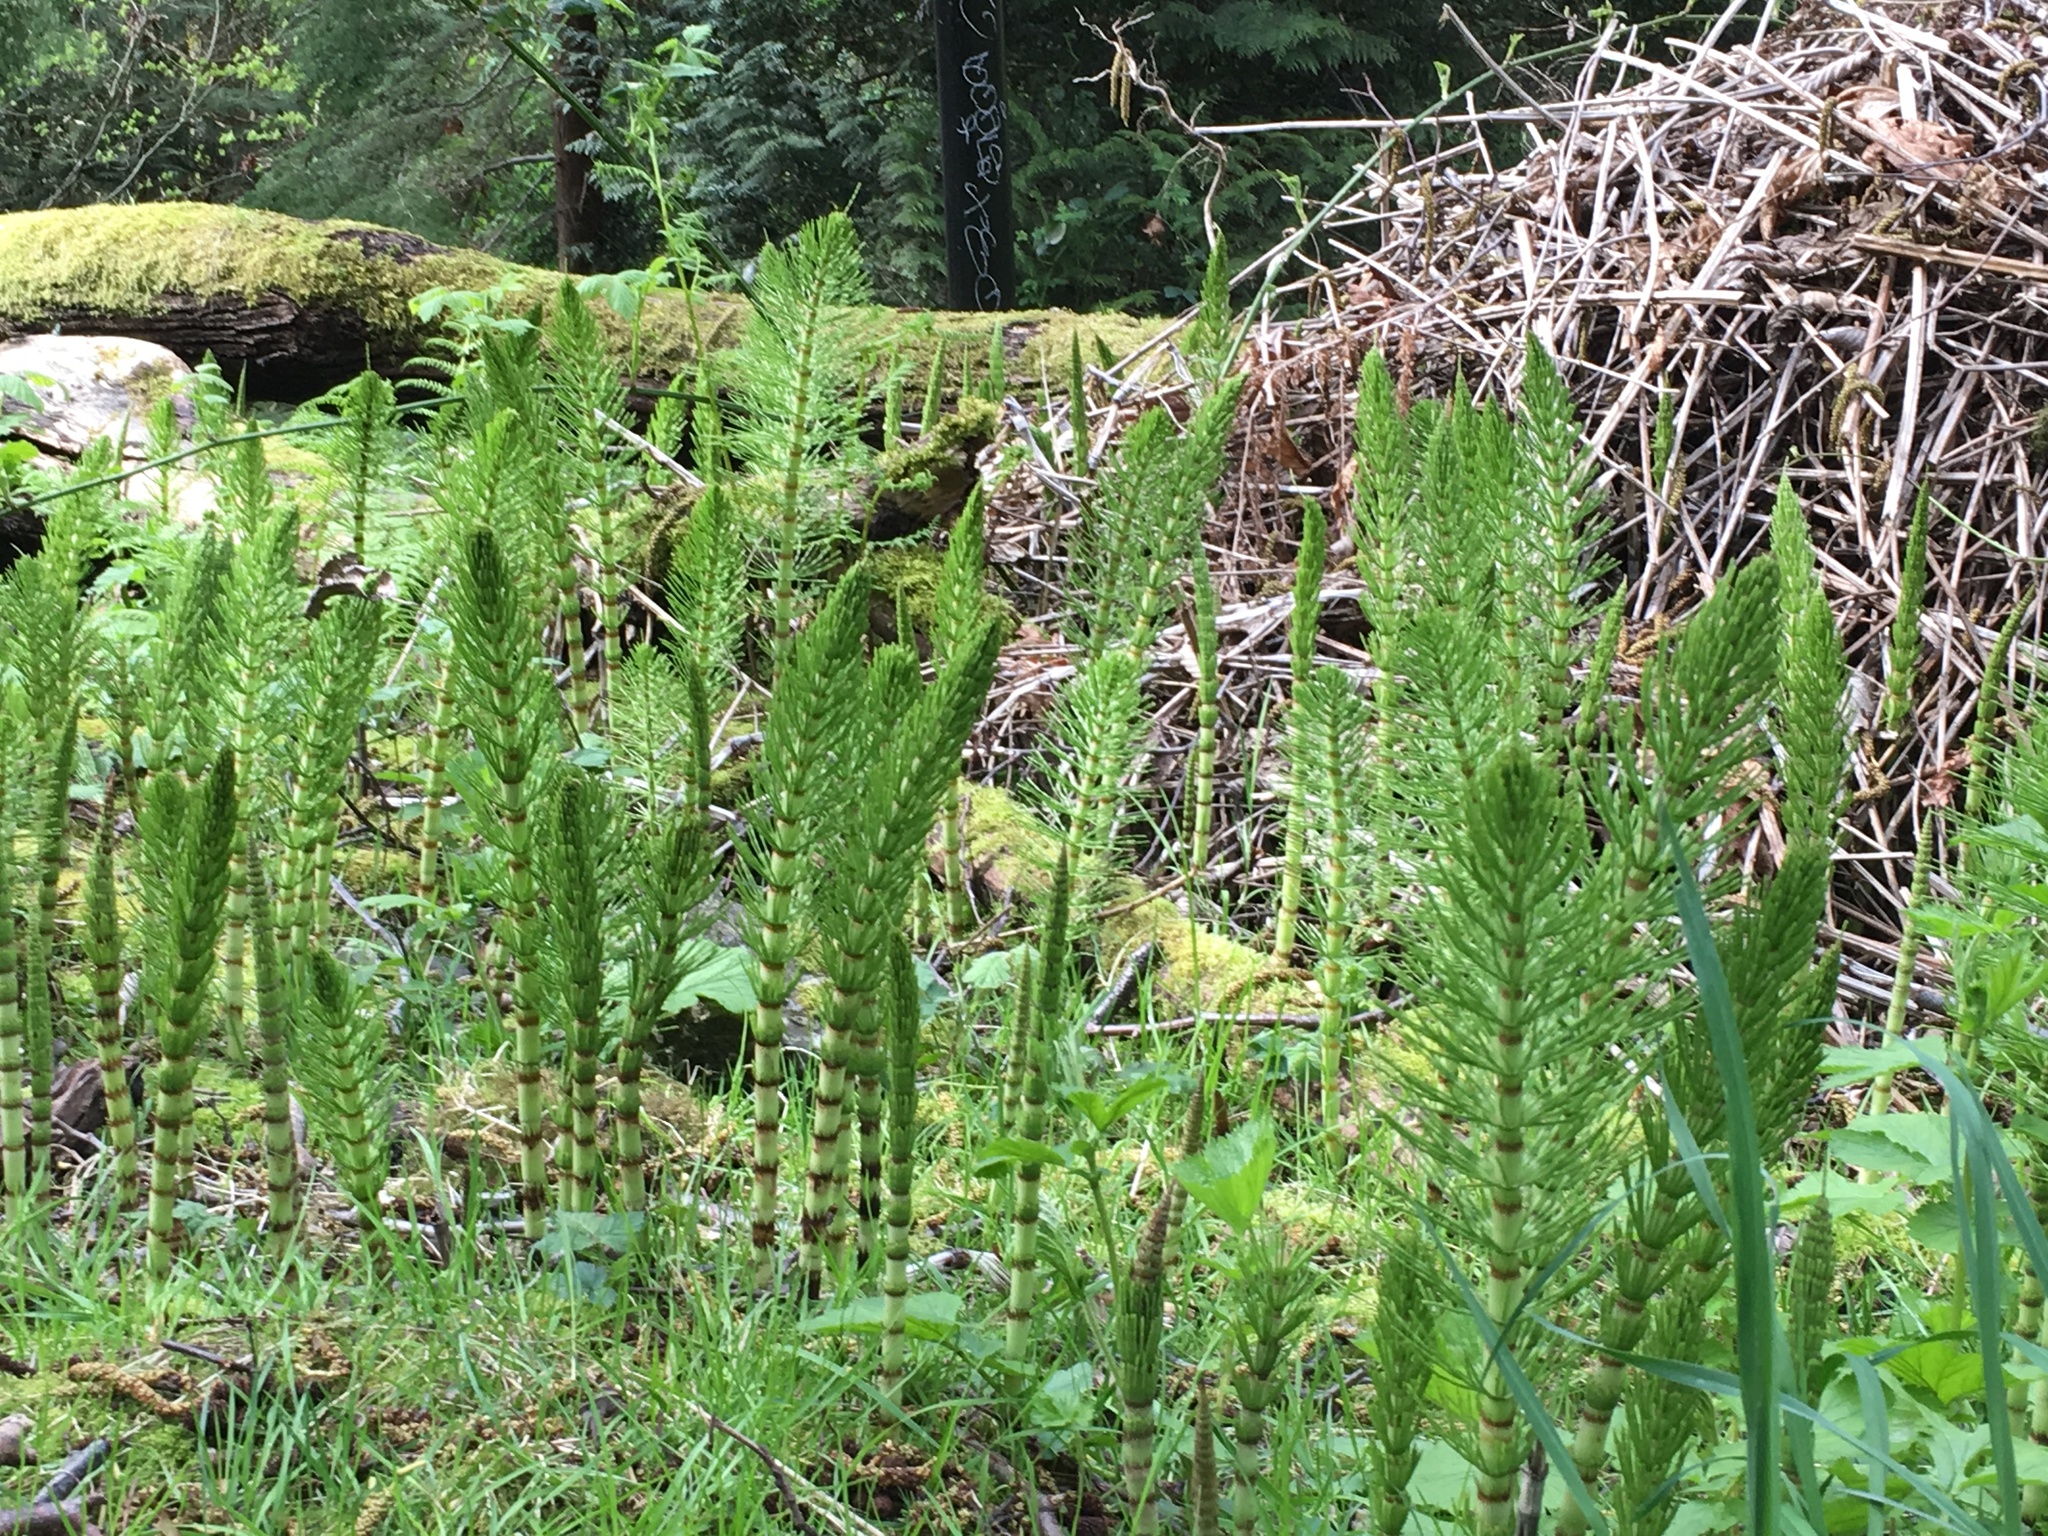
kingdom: Plantae
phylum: Tracheophyta
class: Polypodiopsida
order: Equisetales
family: Equisetaceae
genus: Equisetum
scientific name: Equisetum braunii
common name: Braun's horsetail
